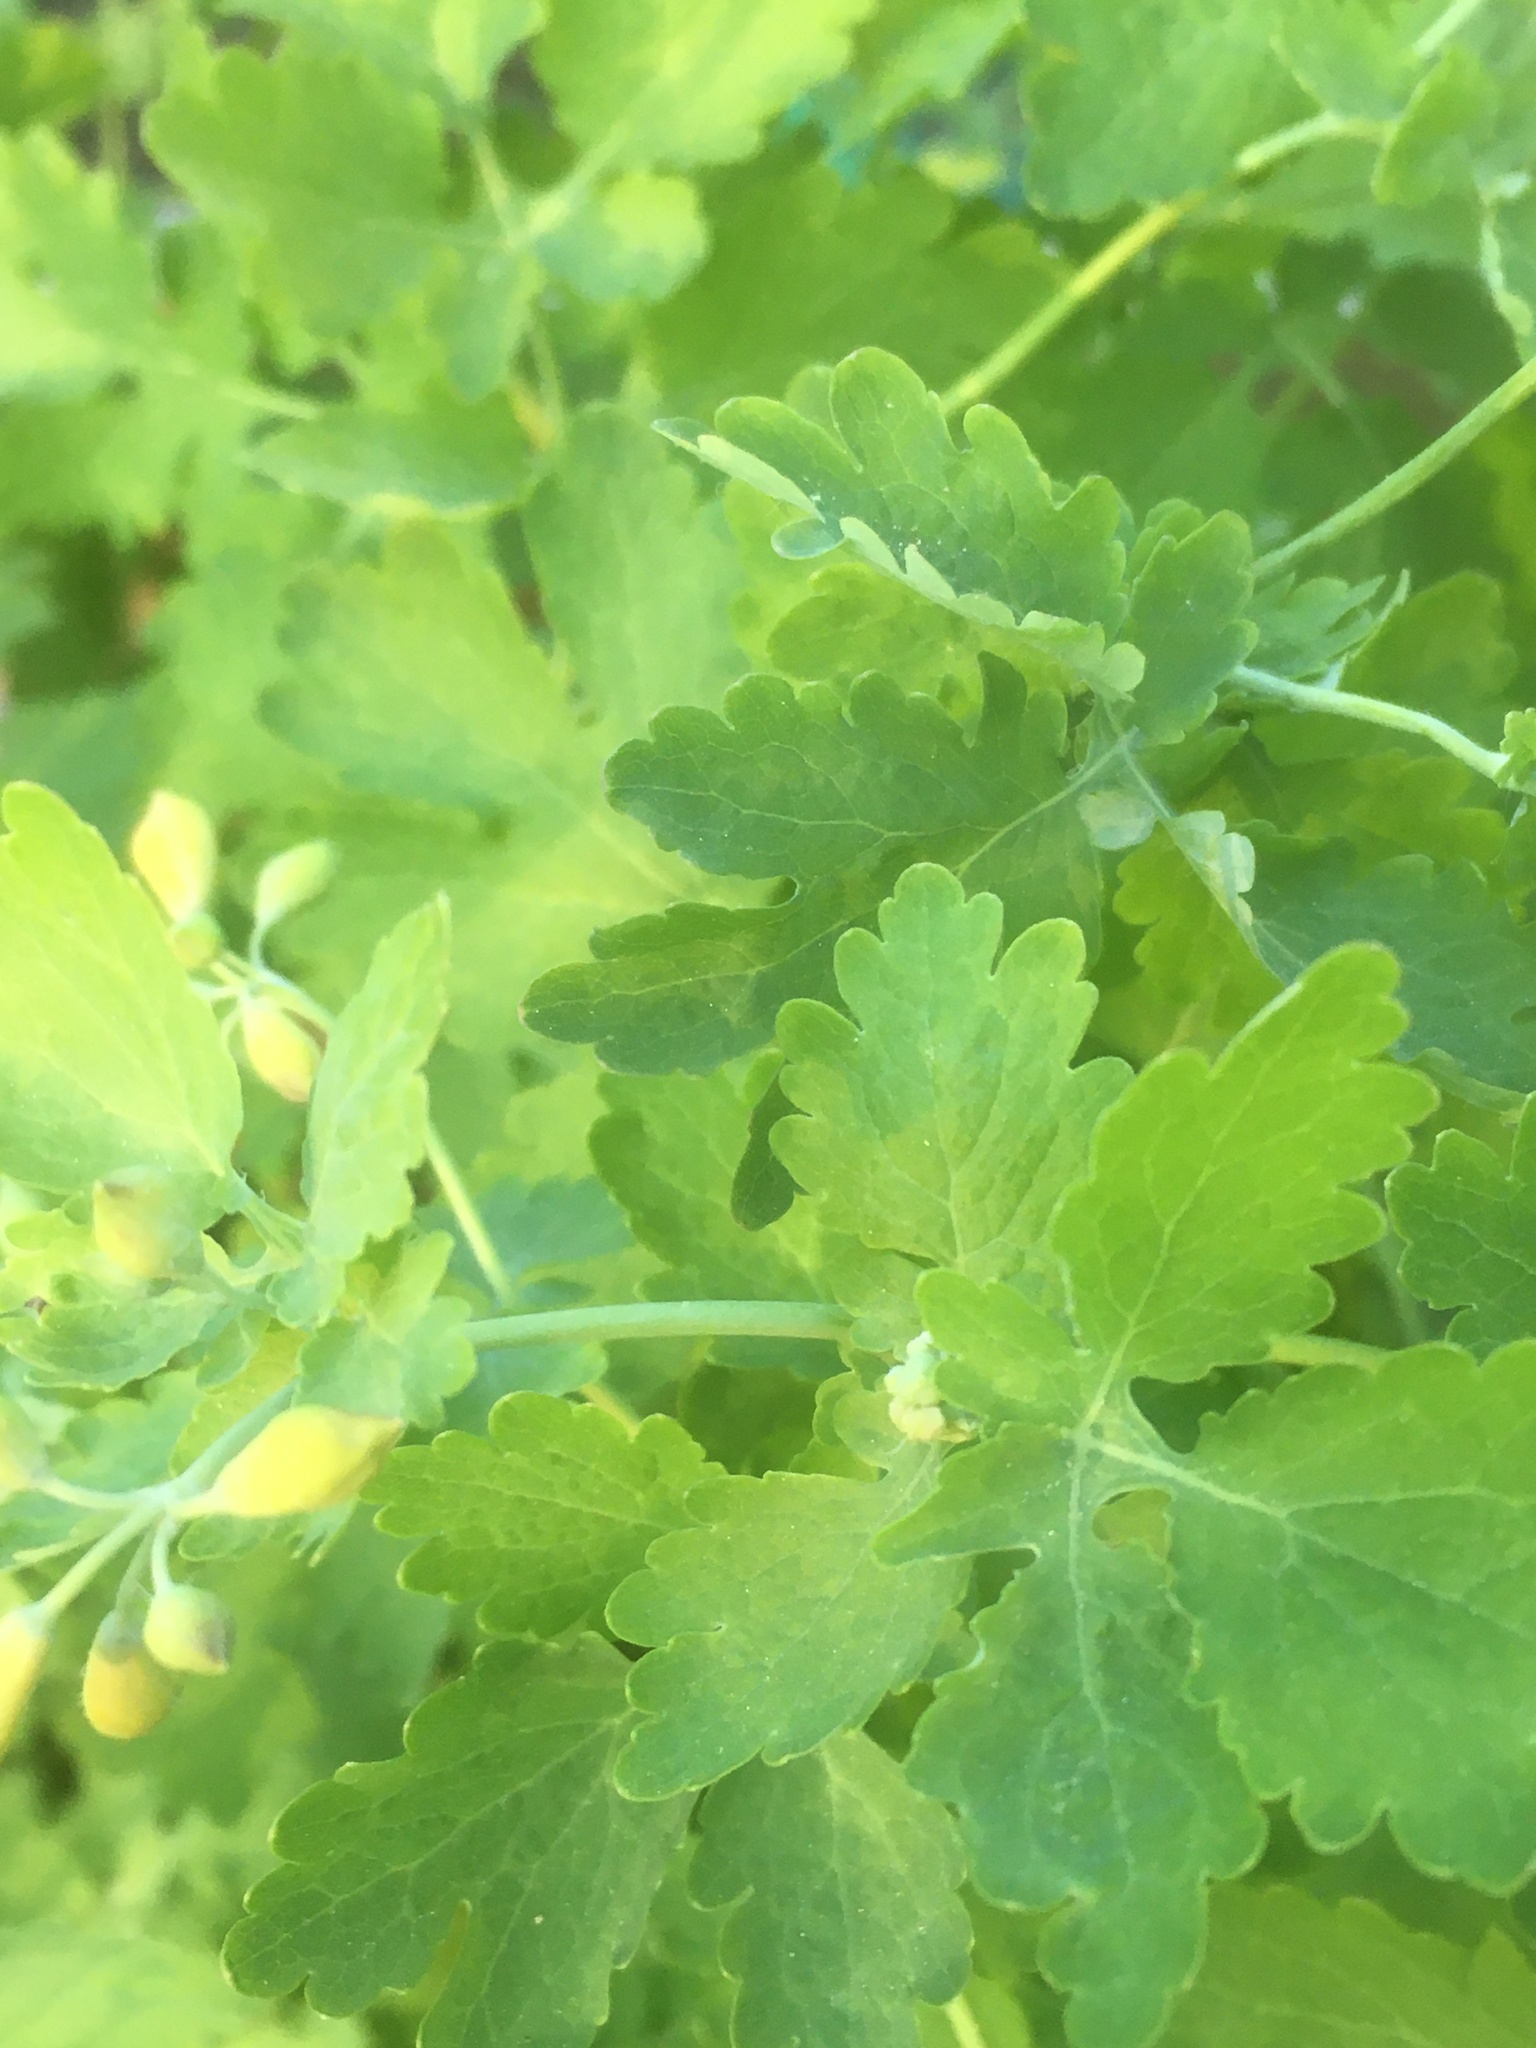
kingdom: Plantae
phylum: Tracheophyta
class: Magnoliopsida
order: Ranunculales
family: Papaveraceae
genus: Chelidonium
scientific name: Chelidonium majus
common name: Greater celandine
